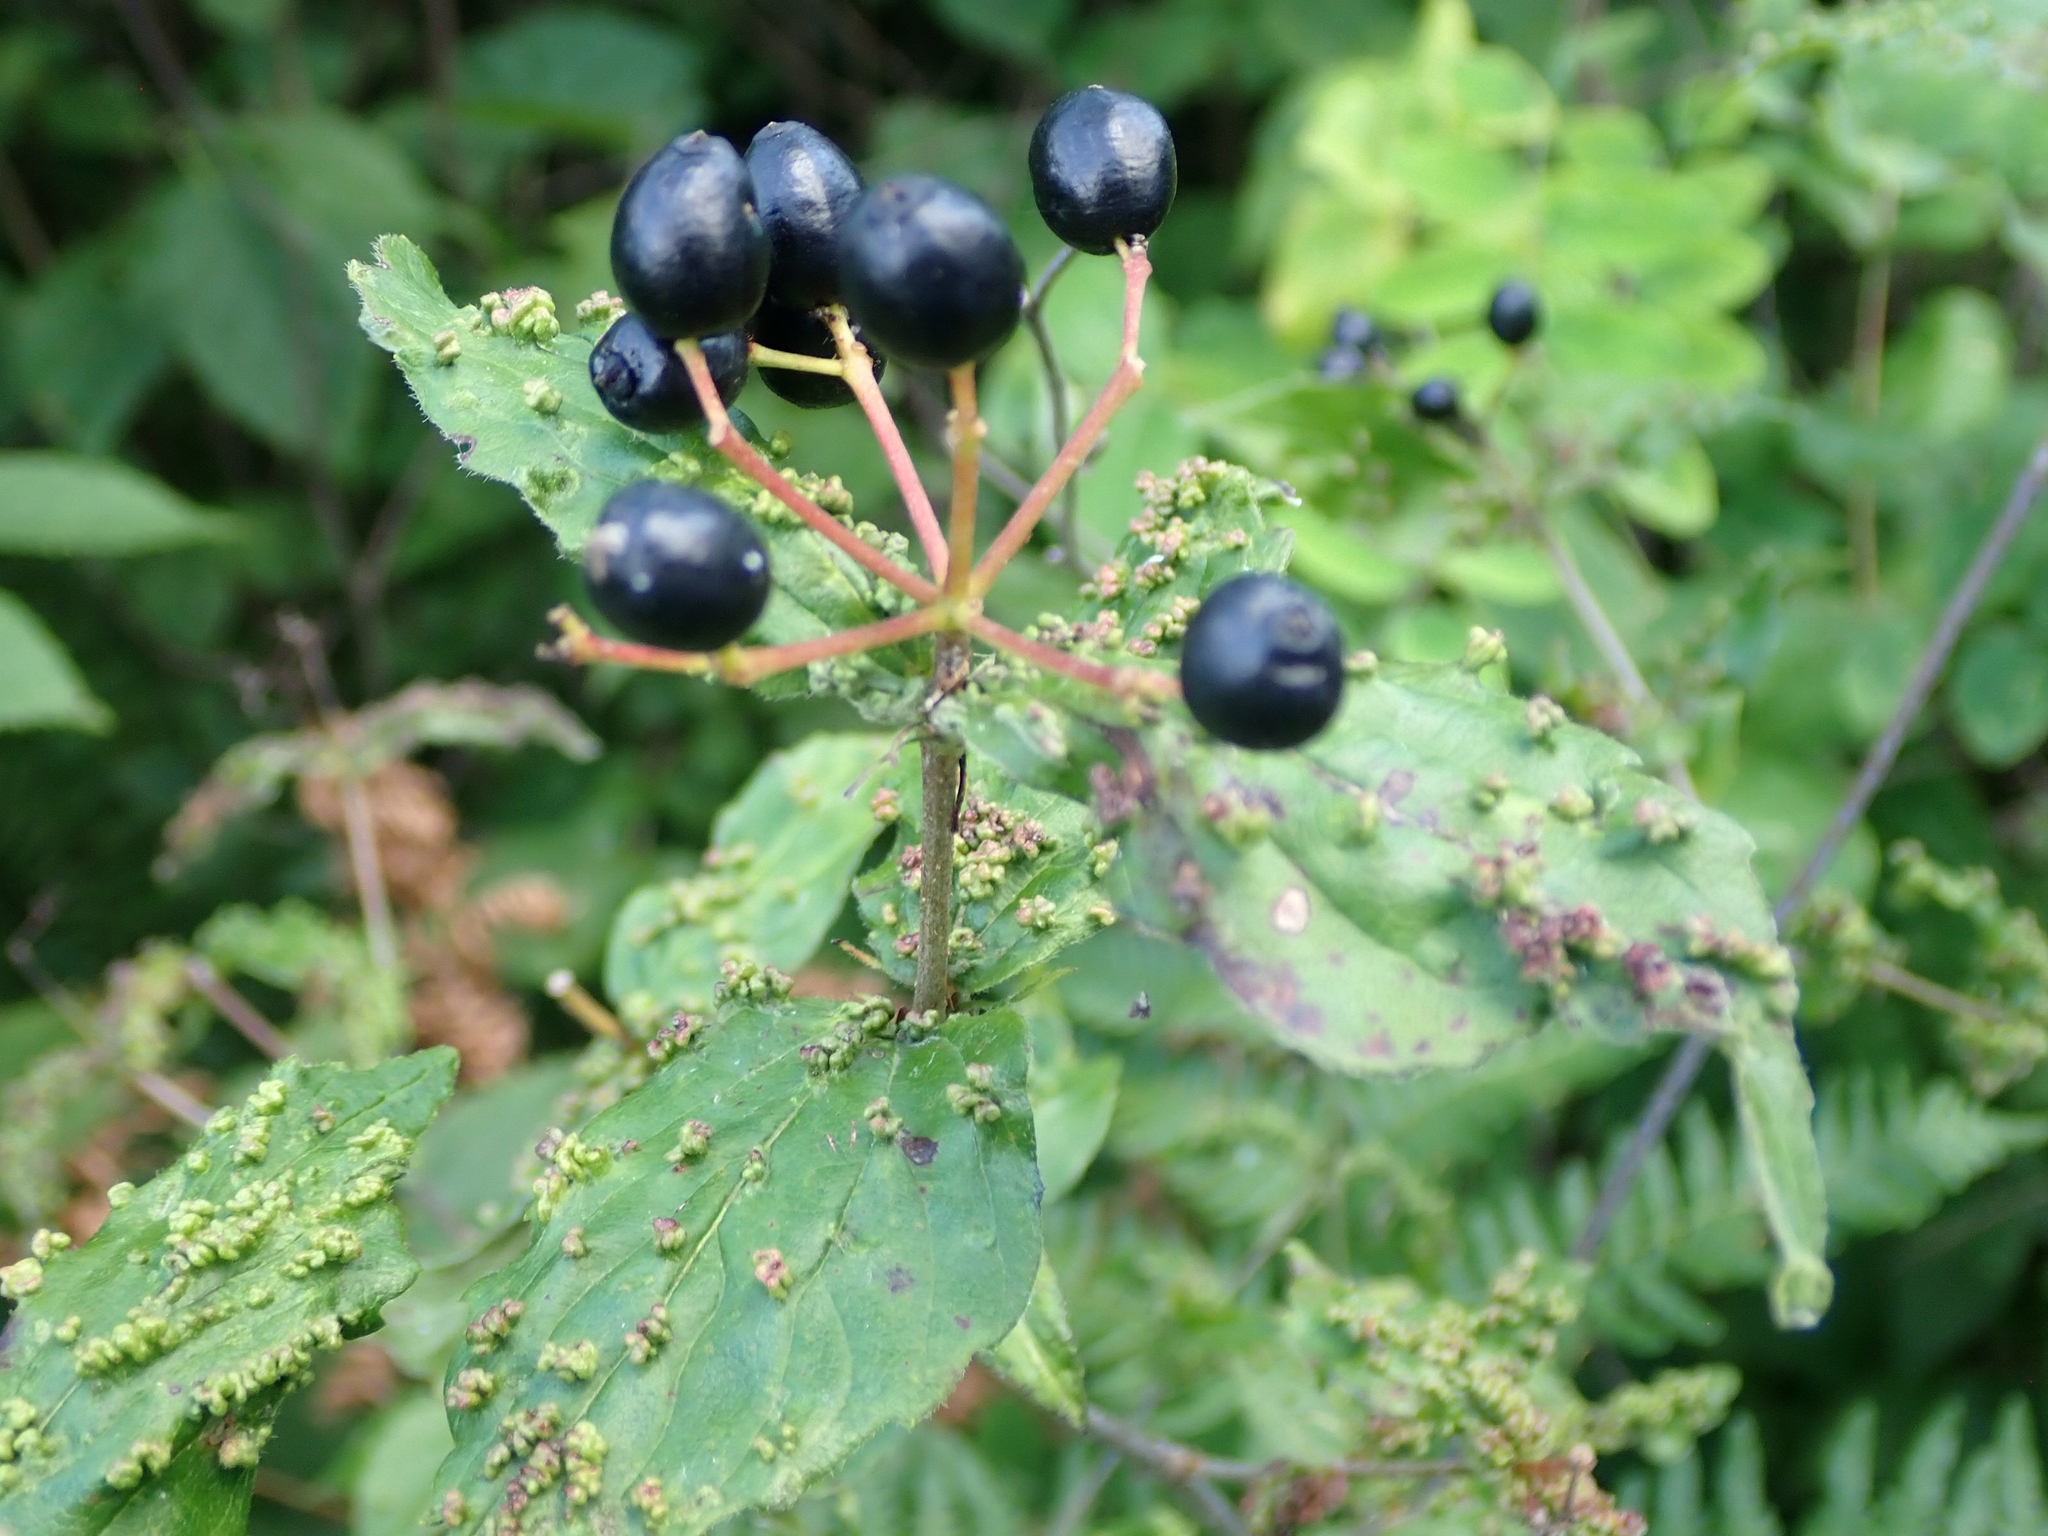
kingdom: Plantae
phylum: Tracheophyta
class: Magnoliopsida
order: Dipsacales
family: Viburnaceae
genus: Viburnum
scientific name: Viburnum rafinesqueanum
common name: Downy arrow-wood
